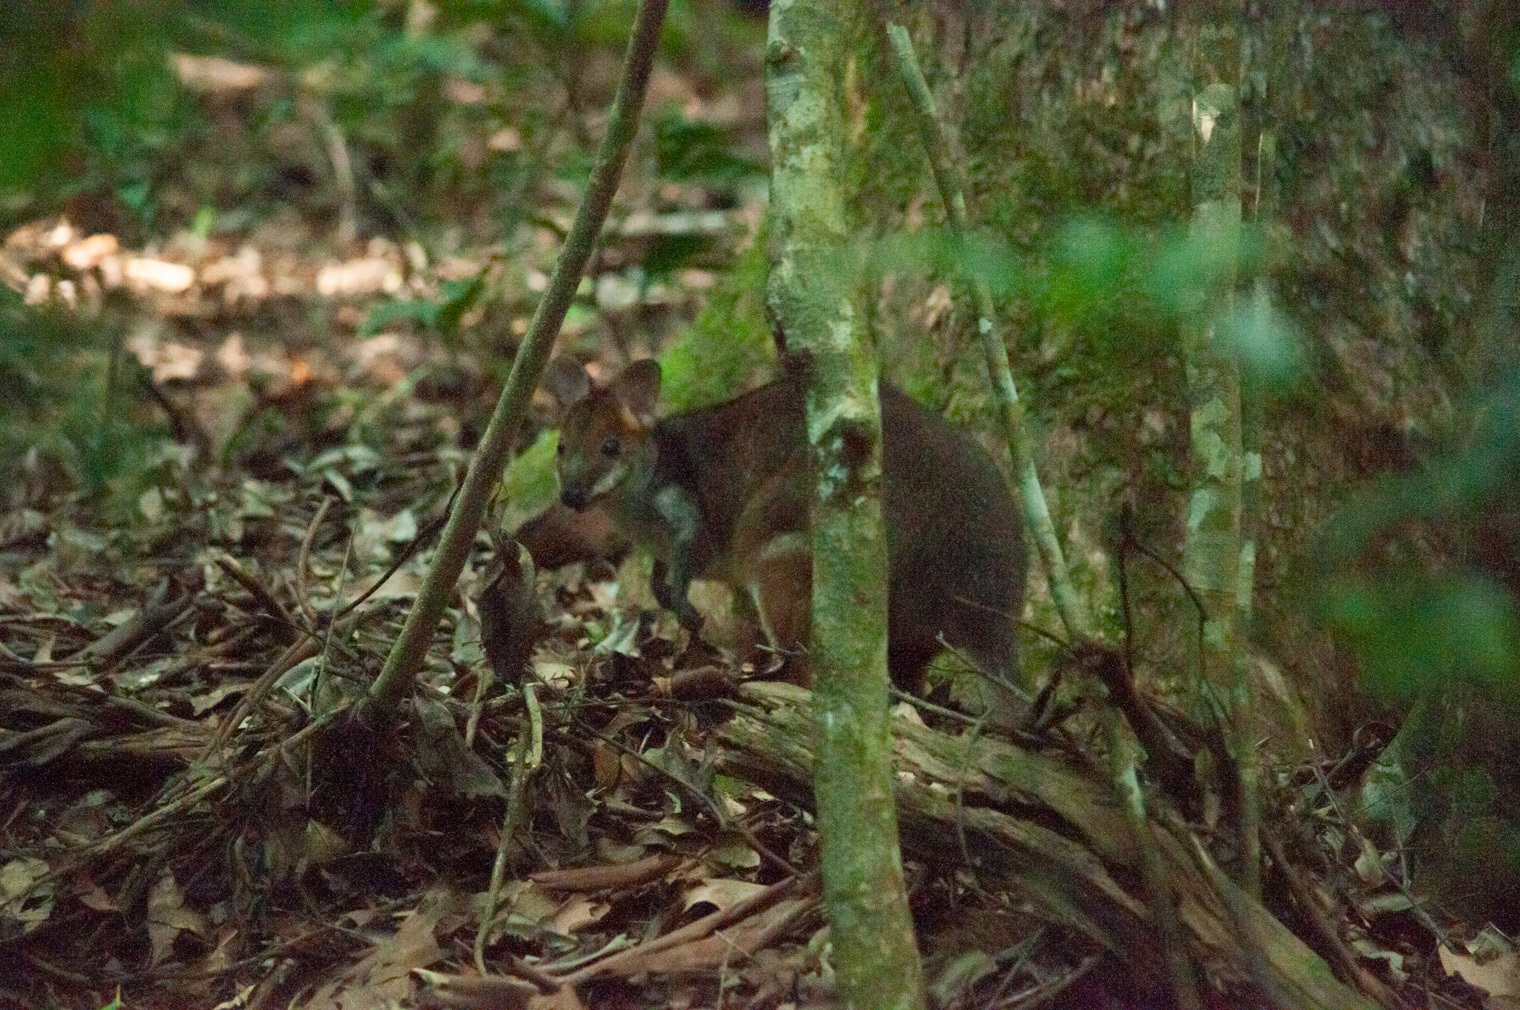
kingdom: Animalia
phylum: Chordata
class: Mammalia
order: Diprotodontia
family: Macropodidae
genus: Thylogale
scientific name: Thylogale stigmatica
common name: Red-legged pademelon
